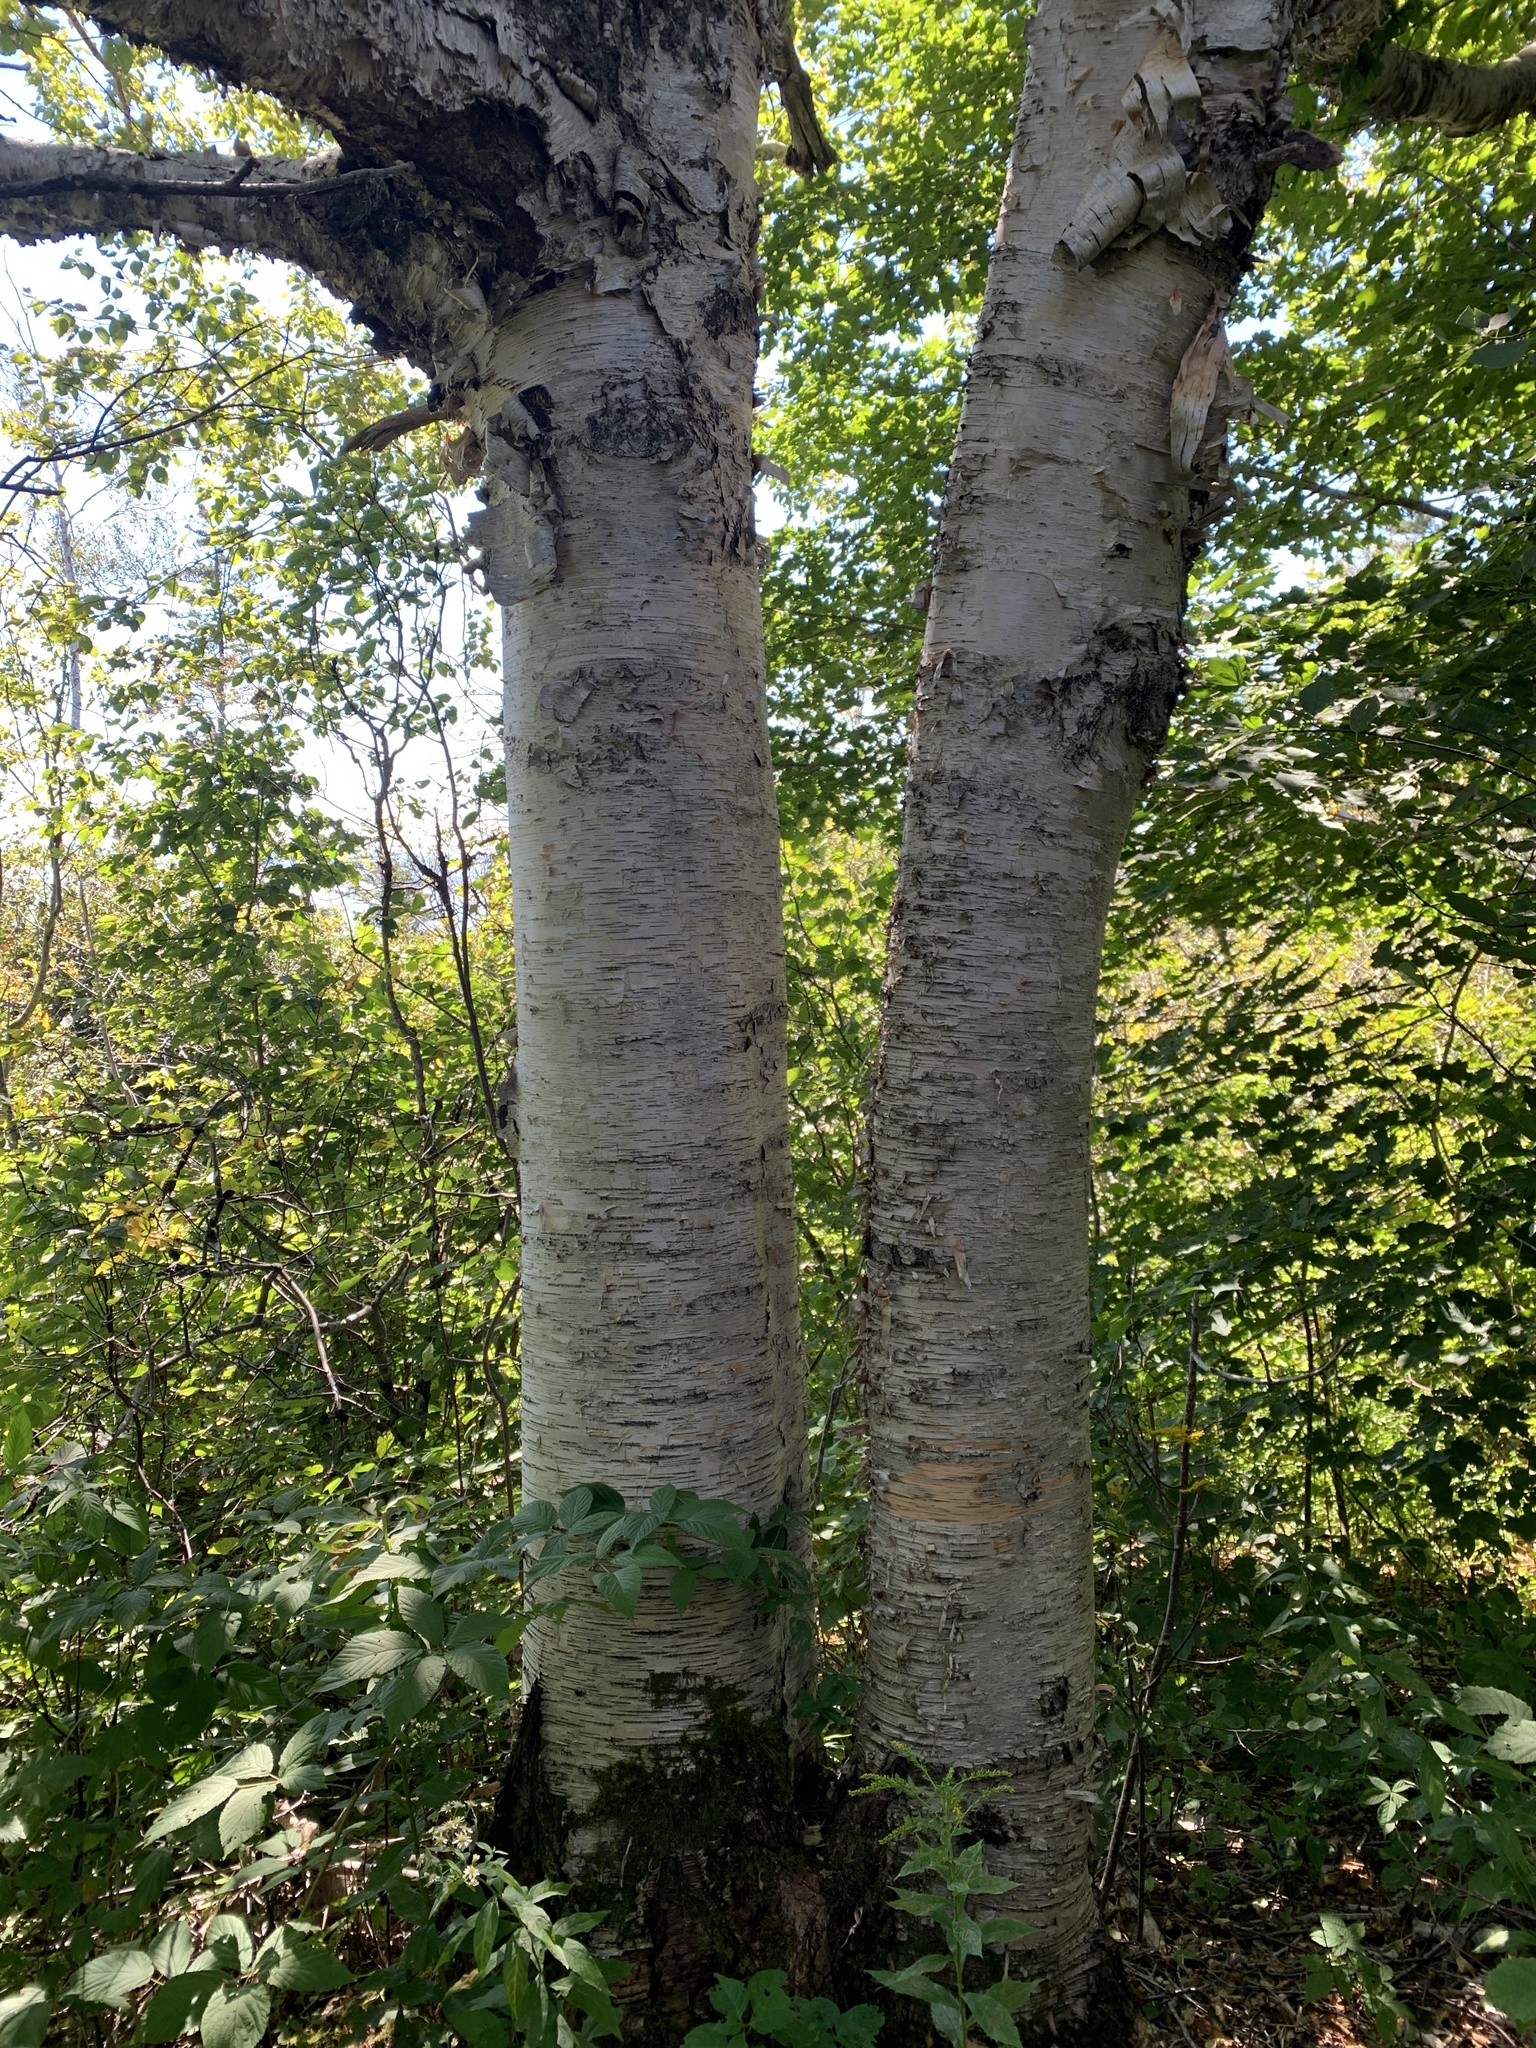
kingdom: Plantae
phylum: Tracheophyta
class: Magnoliopsida
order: Fagales
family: Betulaceae
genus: Betula
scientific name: Betula papyrifera
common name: Paper birch
